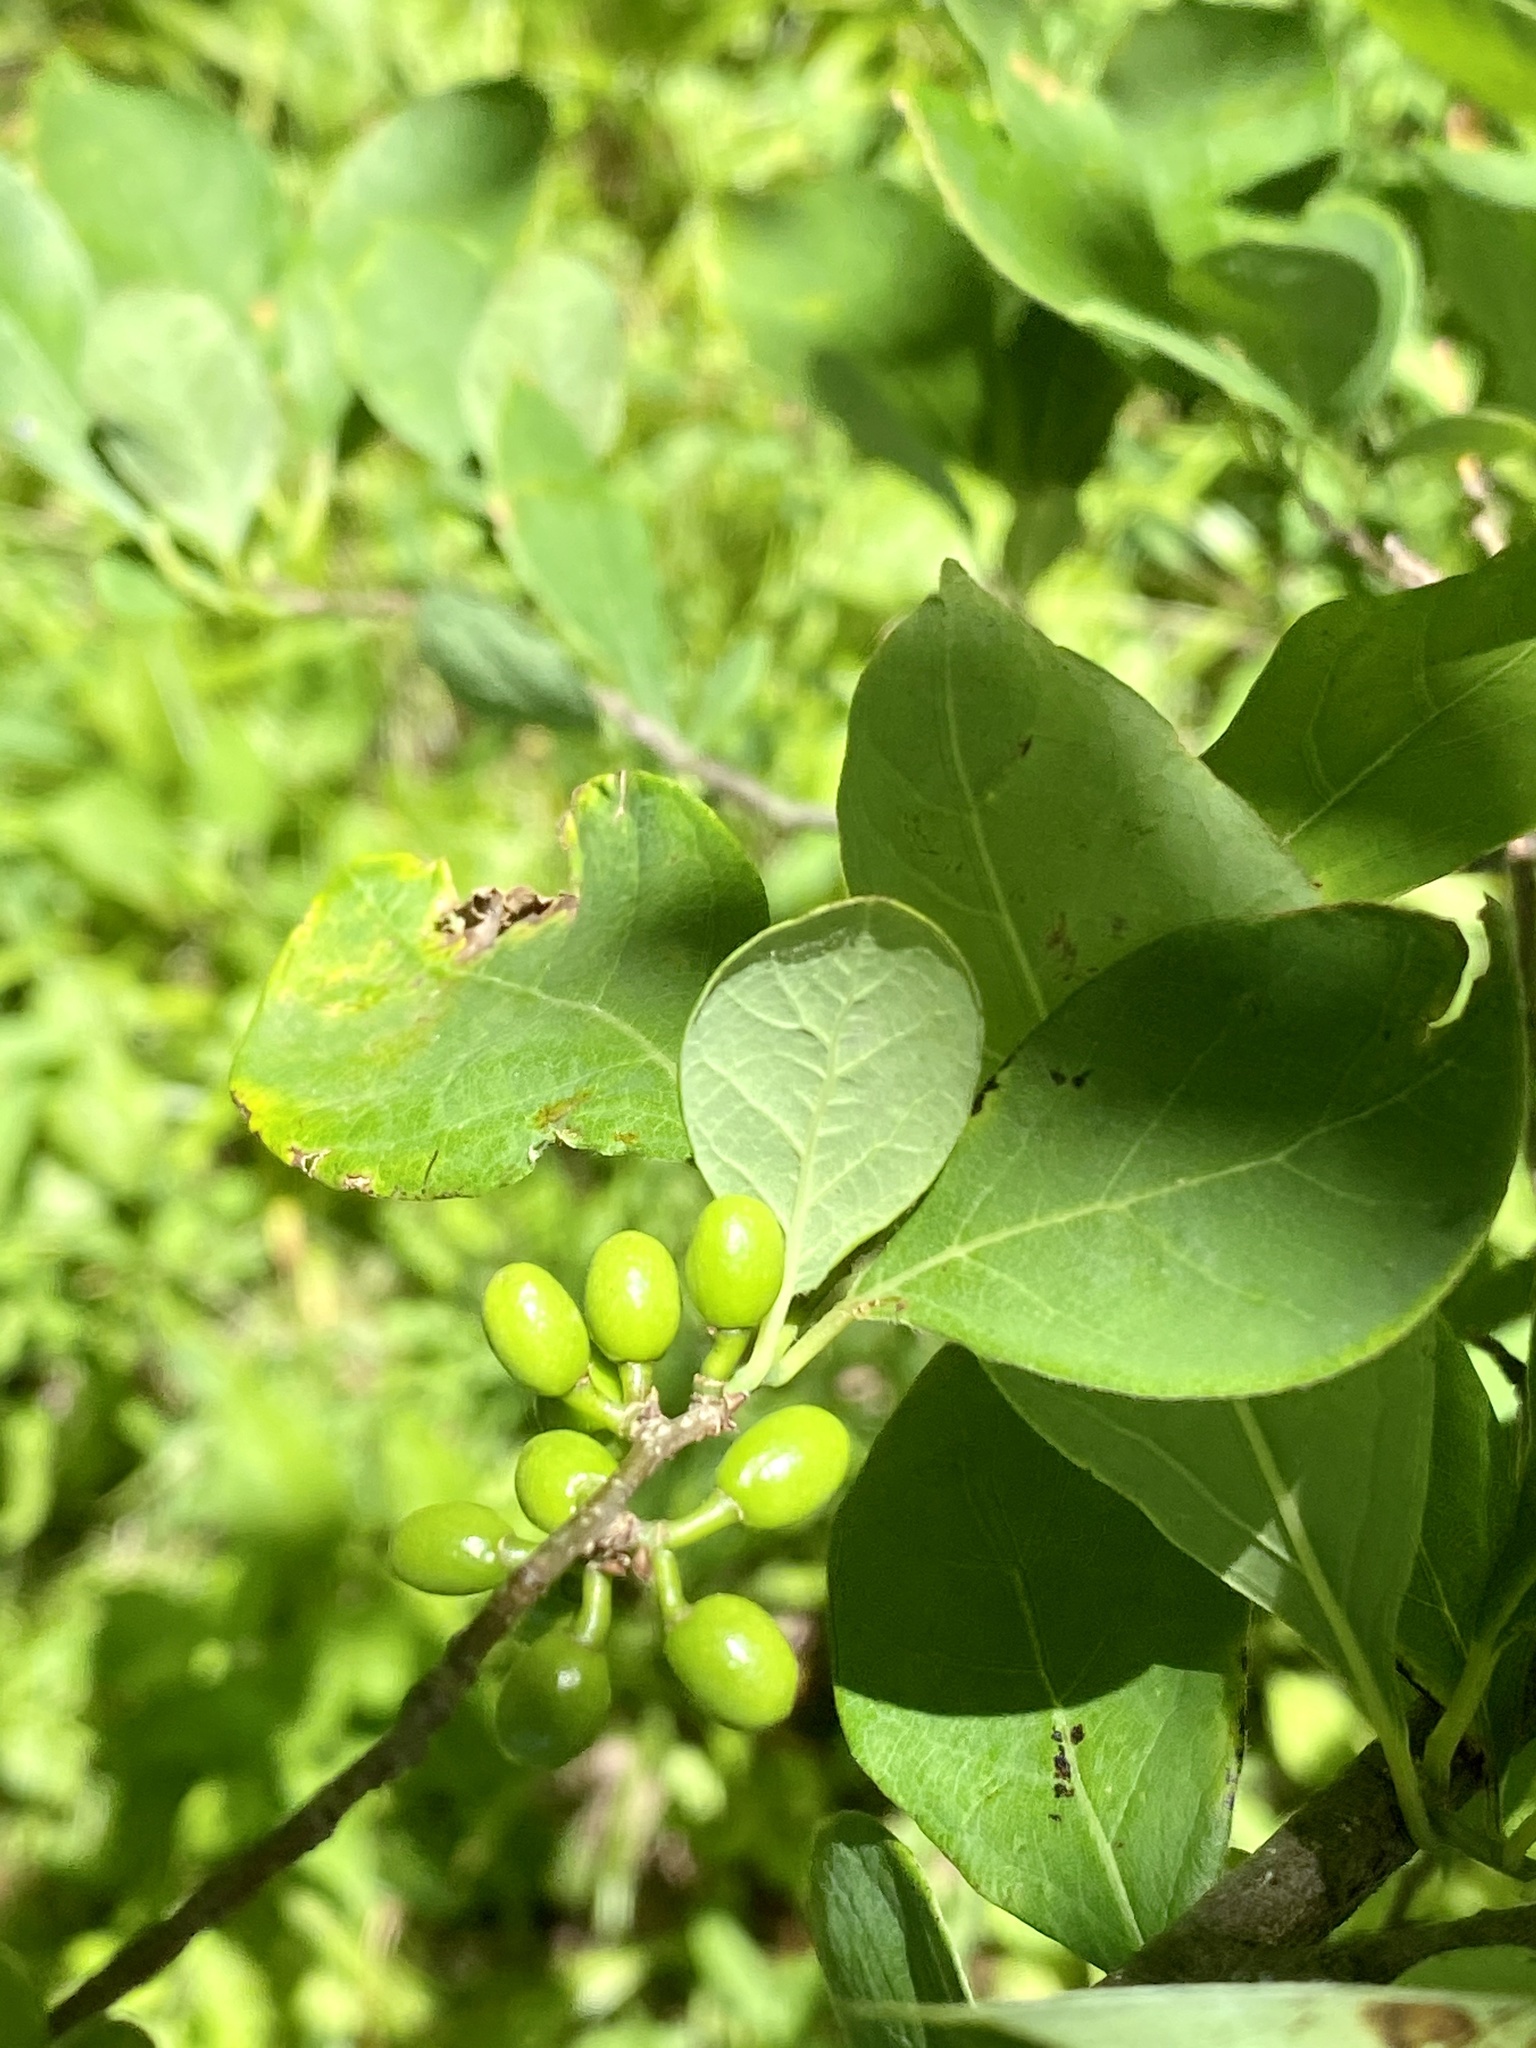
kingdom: Plantae
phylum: Tracheophyta
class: Magnoliopsida
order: Laurales
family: Lauraceae
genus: Lindera
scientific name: Lindera benzoin
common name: Spicebush
